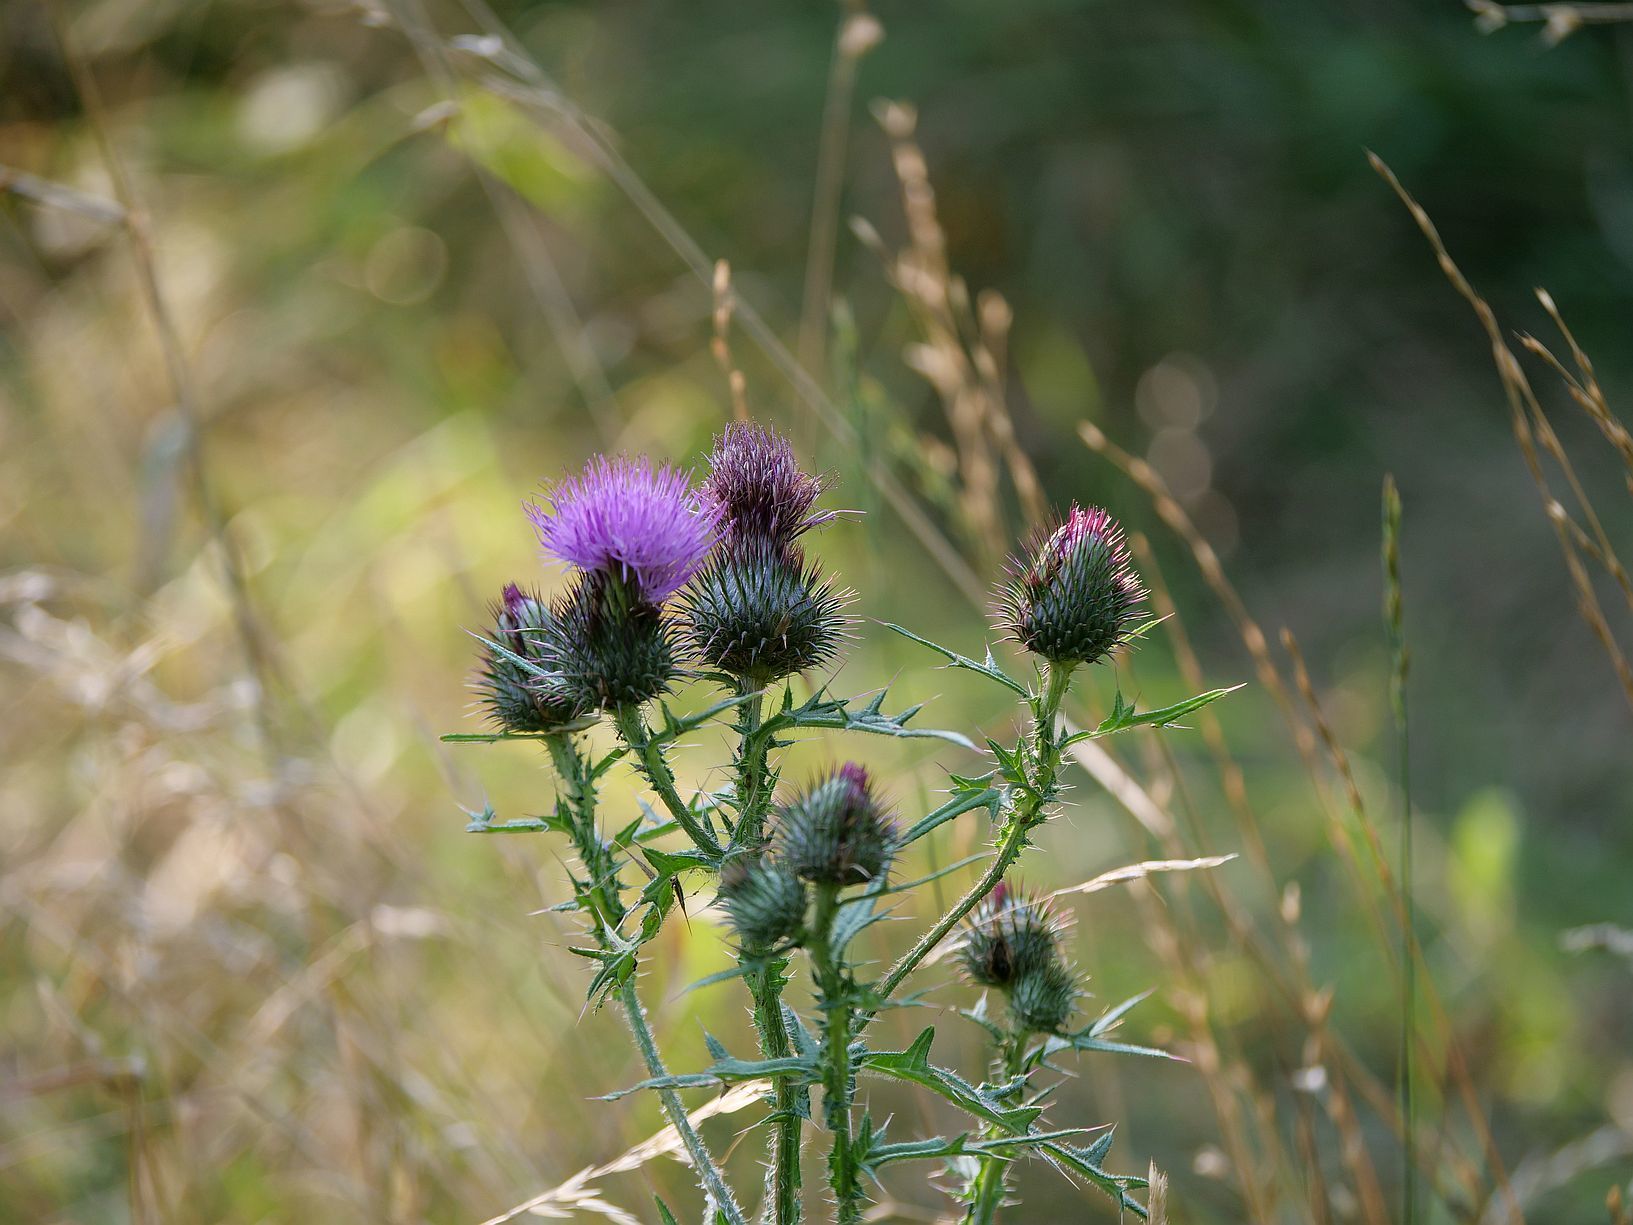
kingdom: Plantae
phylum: Tracheophyta
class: Magnoliopsida
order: Asterales
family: Asteraceae
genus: Cirsium
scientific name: Cirsium vulgare
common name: Bull thistle
